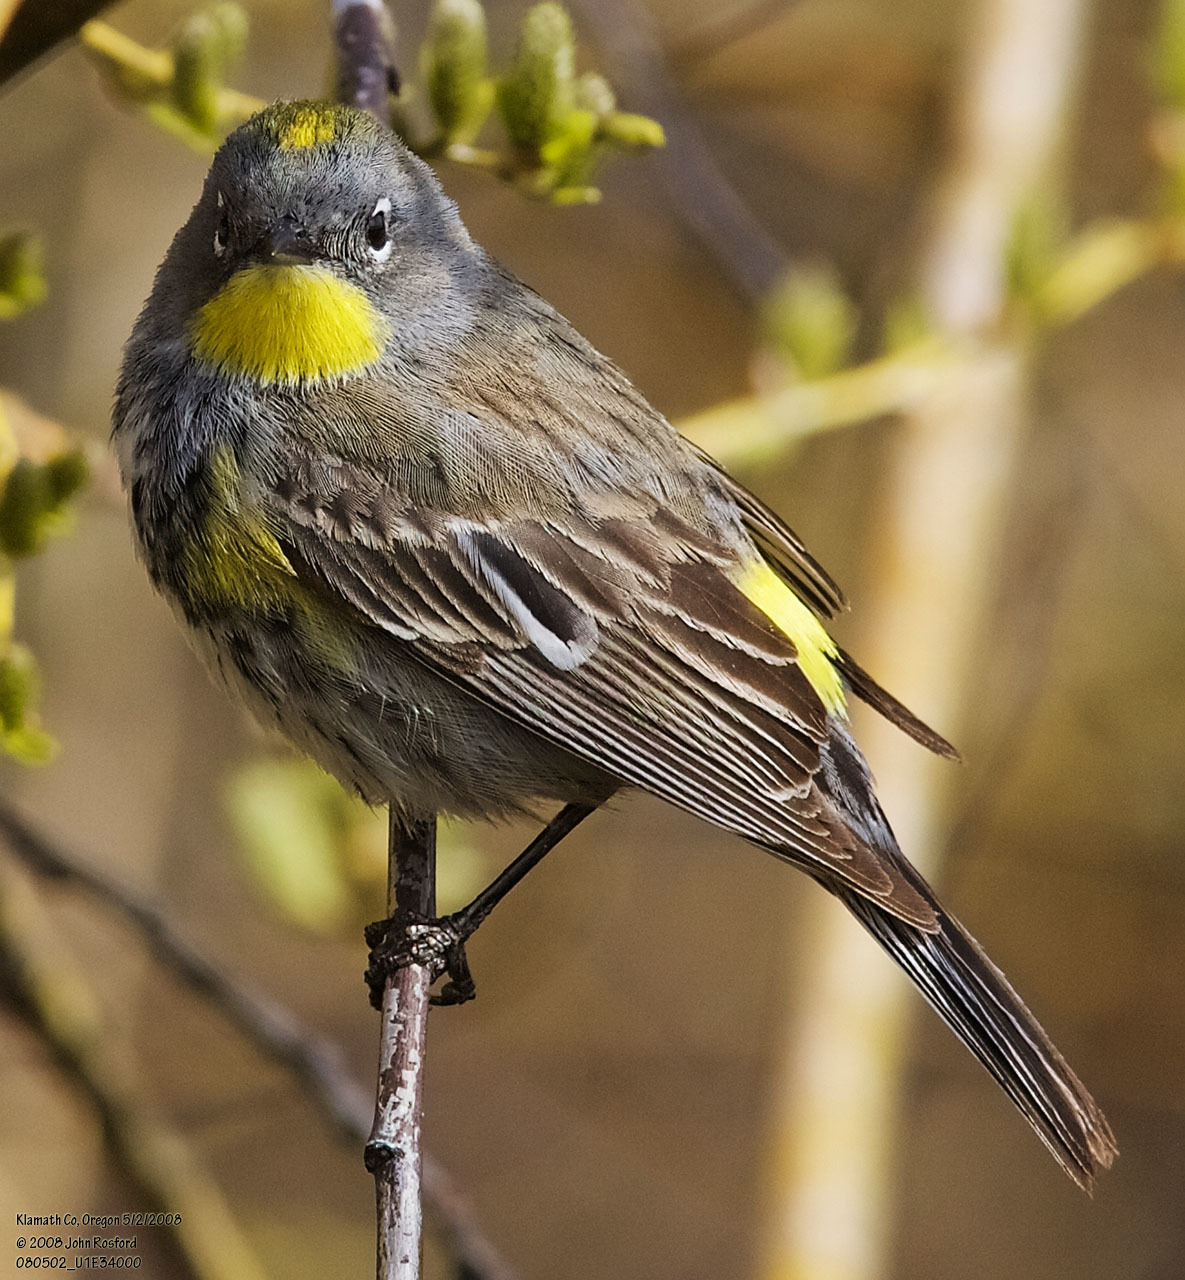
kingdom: Animalia
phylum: Chordata
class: Aves
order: Passeriformes
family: Parulidae
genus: Setophaga
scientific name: Setophaga coronata
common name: Myrtle warbler
